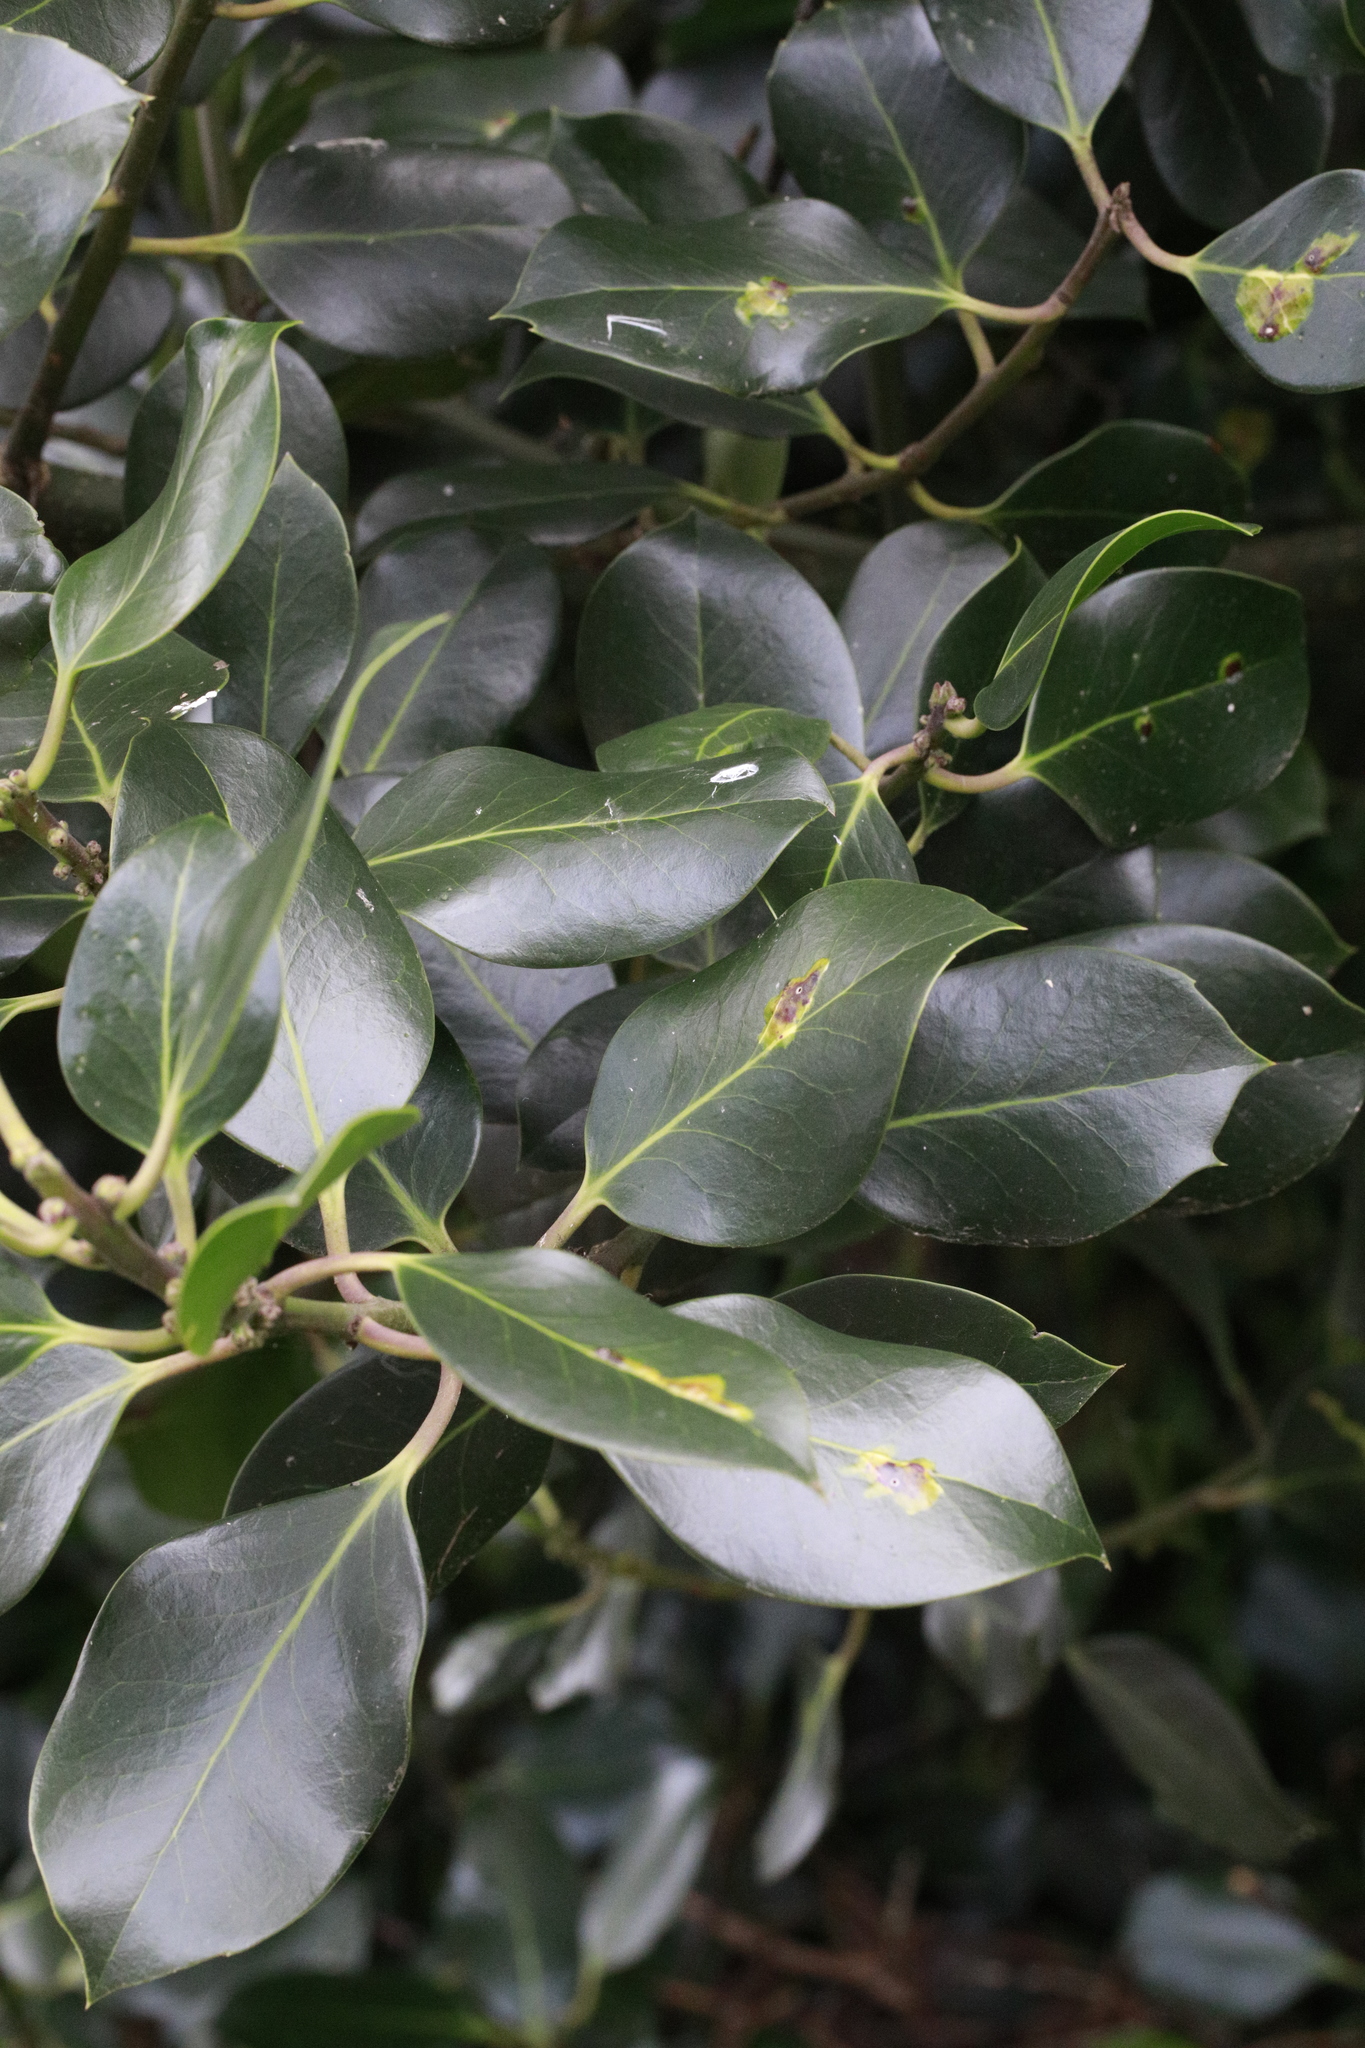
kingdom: Plantae
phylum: Tracheophyta
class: Magnoliopsida
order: Aquifoliales
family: Aquifoliaceae
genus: Ilex
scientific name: Ilex altaclerensis
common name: Highclere holly
